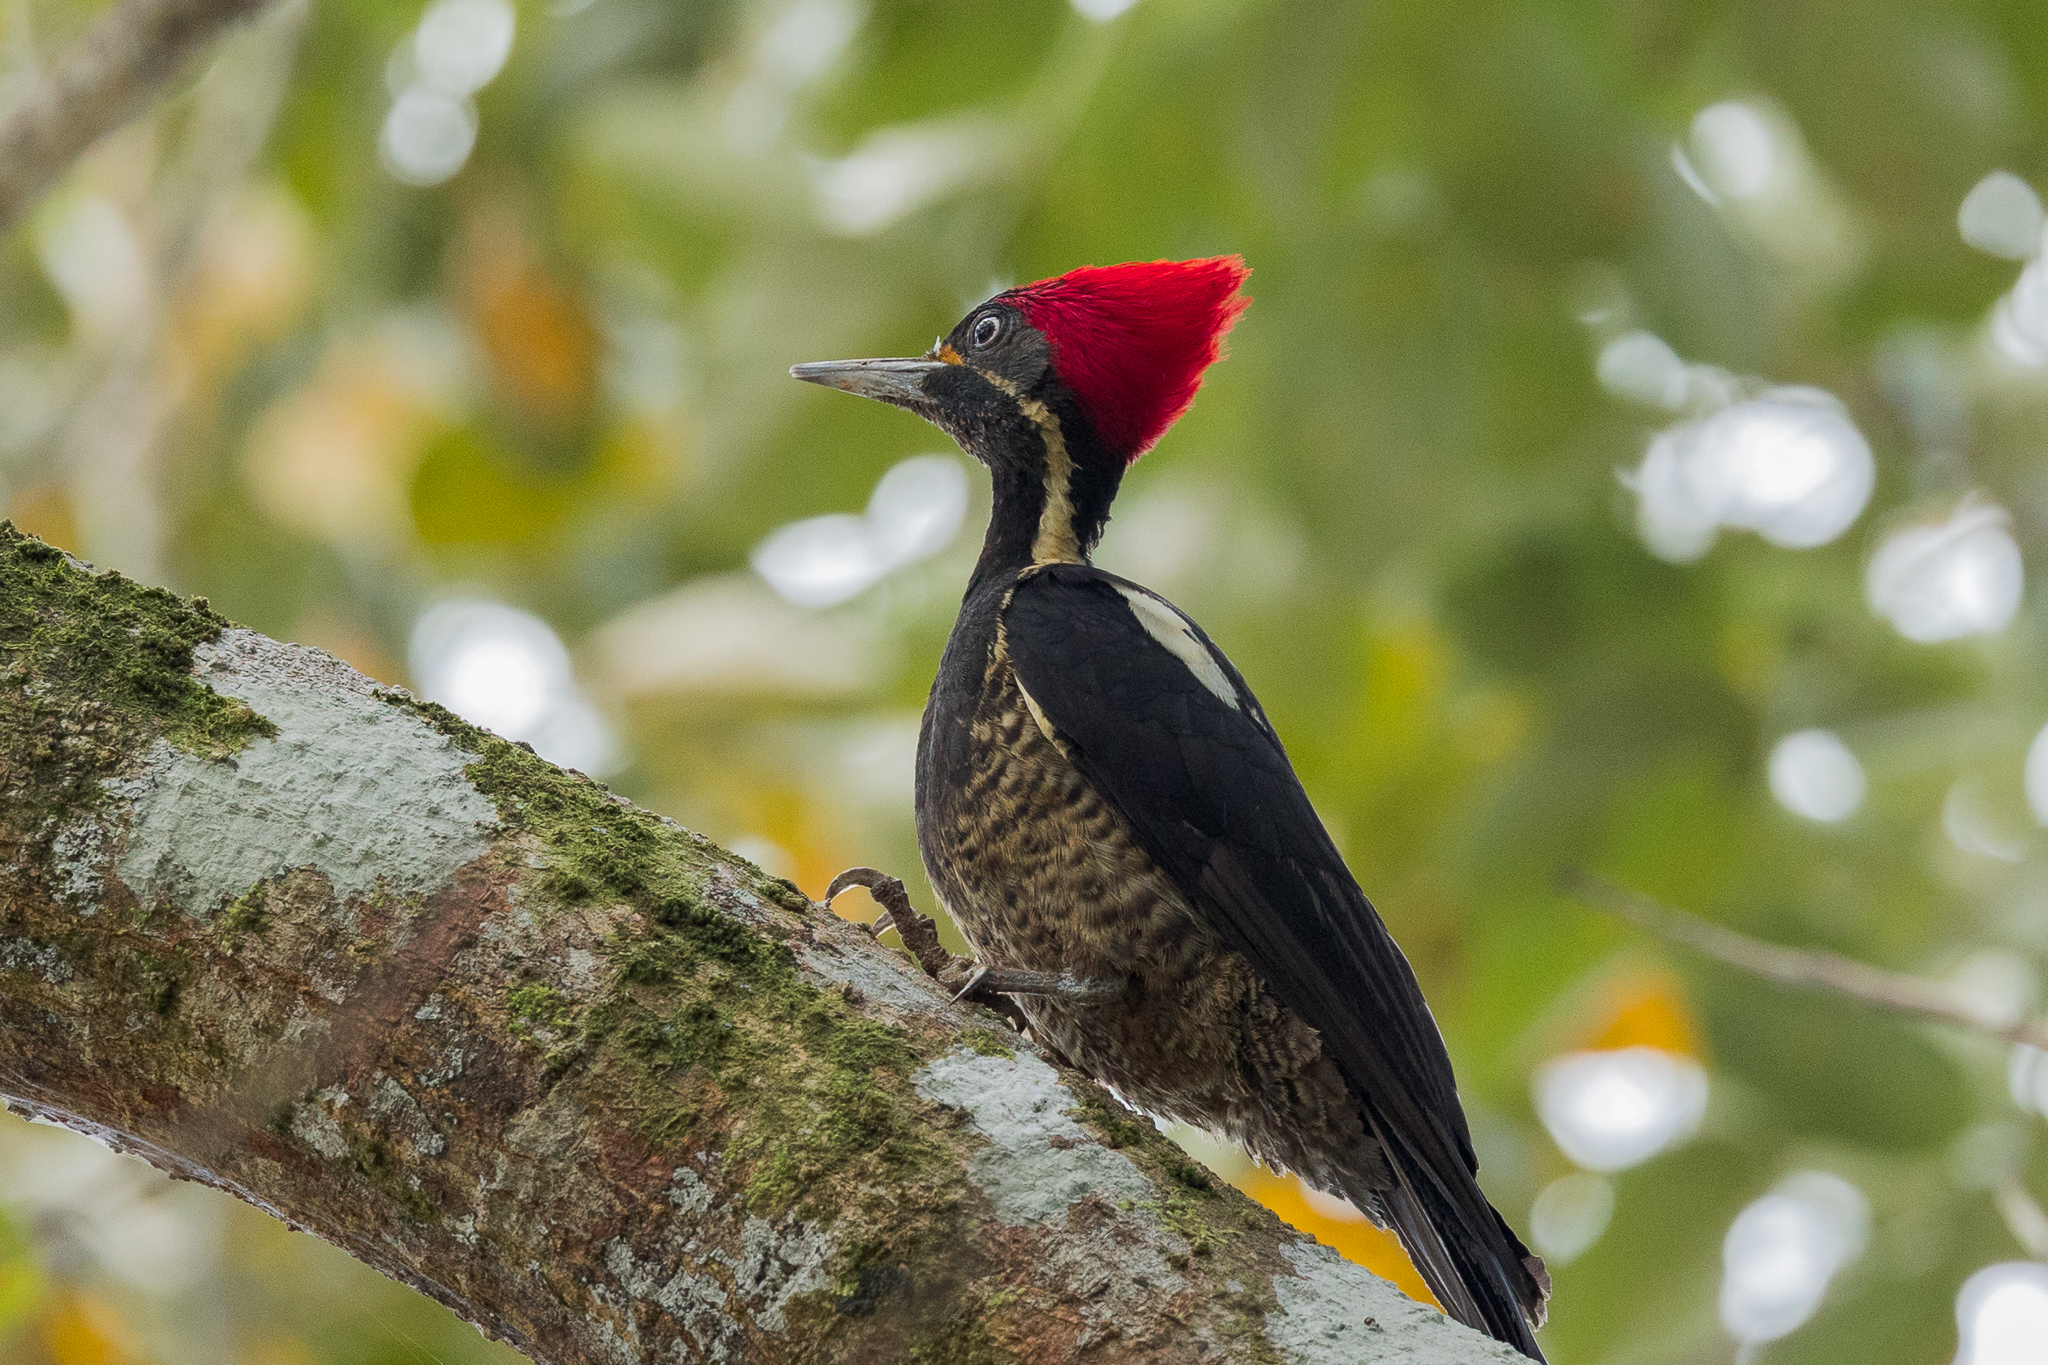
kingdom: Animalia
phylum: Chordata
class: Aves
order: Piciformes
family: Picidae
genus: Dryocopus
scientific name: Dryocopus lineatus
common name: Lineated woodpecker
